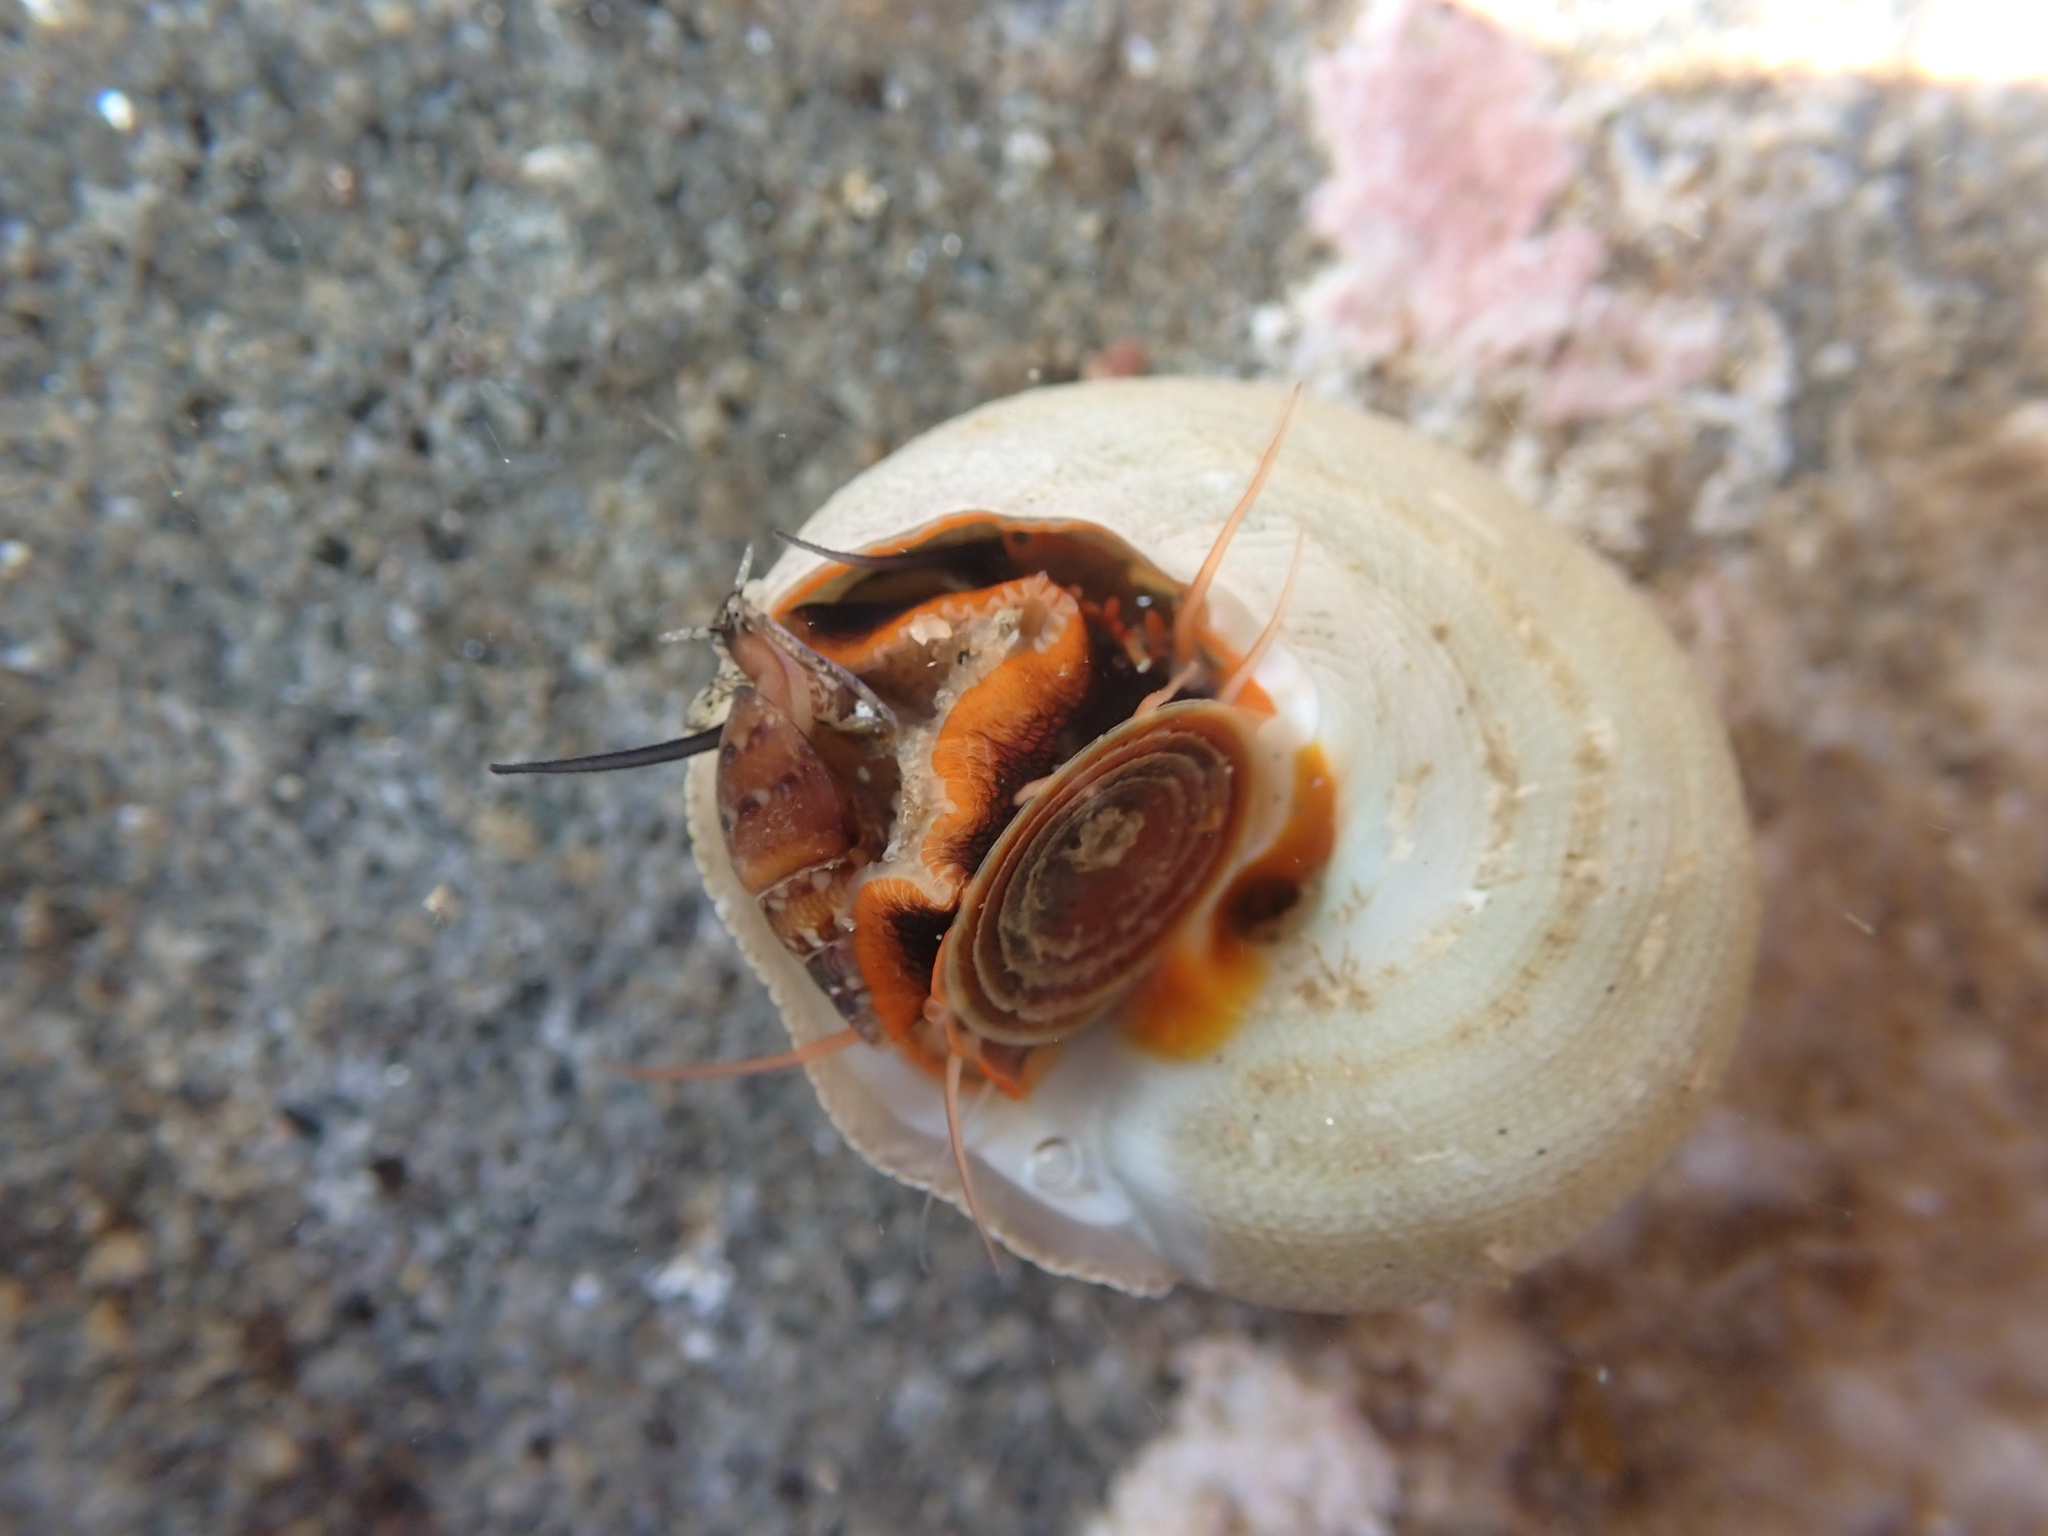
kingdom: Animalia
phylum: Mollusca
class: Gastropoda
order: Trochida
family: Tegulidae
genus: Tegula
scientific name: Tegula aureotincta
